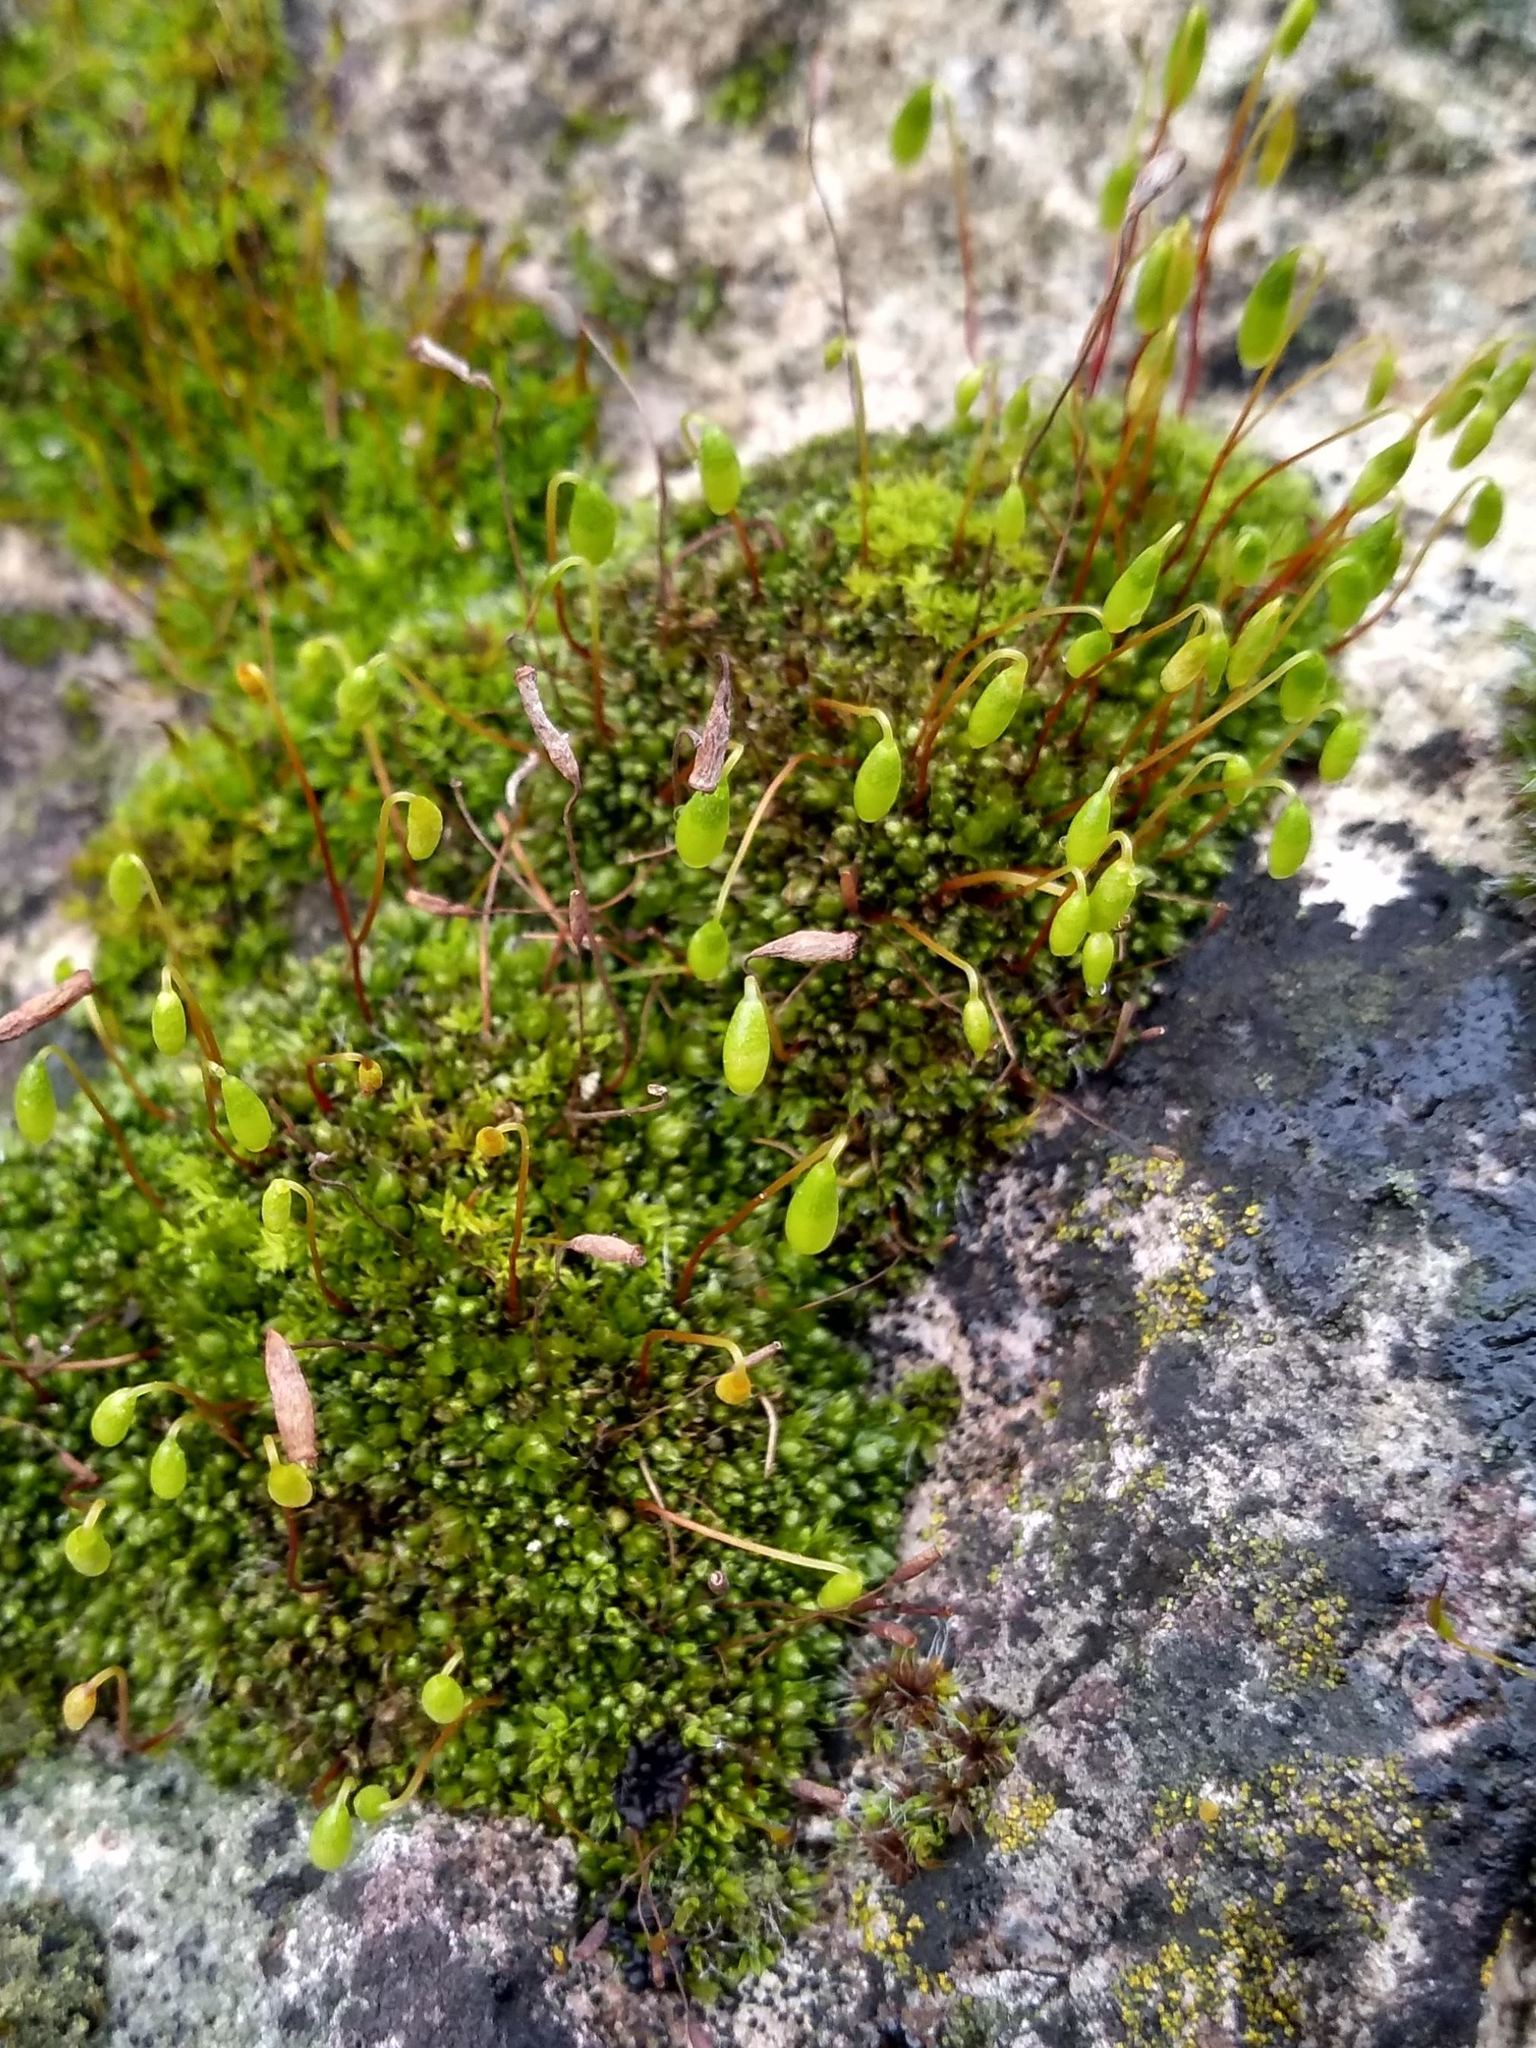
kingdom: Plantae
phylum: Bryophyta
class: Bryopsida
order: Bryales
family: Bryaceae
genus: Rosulabryum
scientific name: Rosulabryum capillare
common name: Capillary thread-moss
